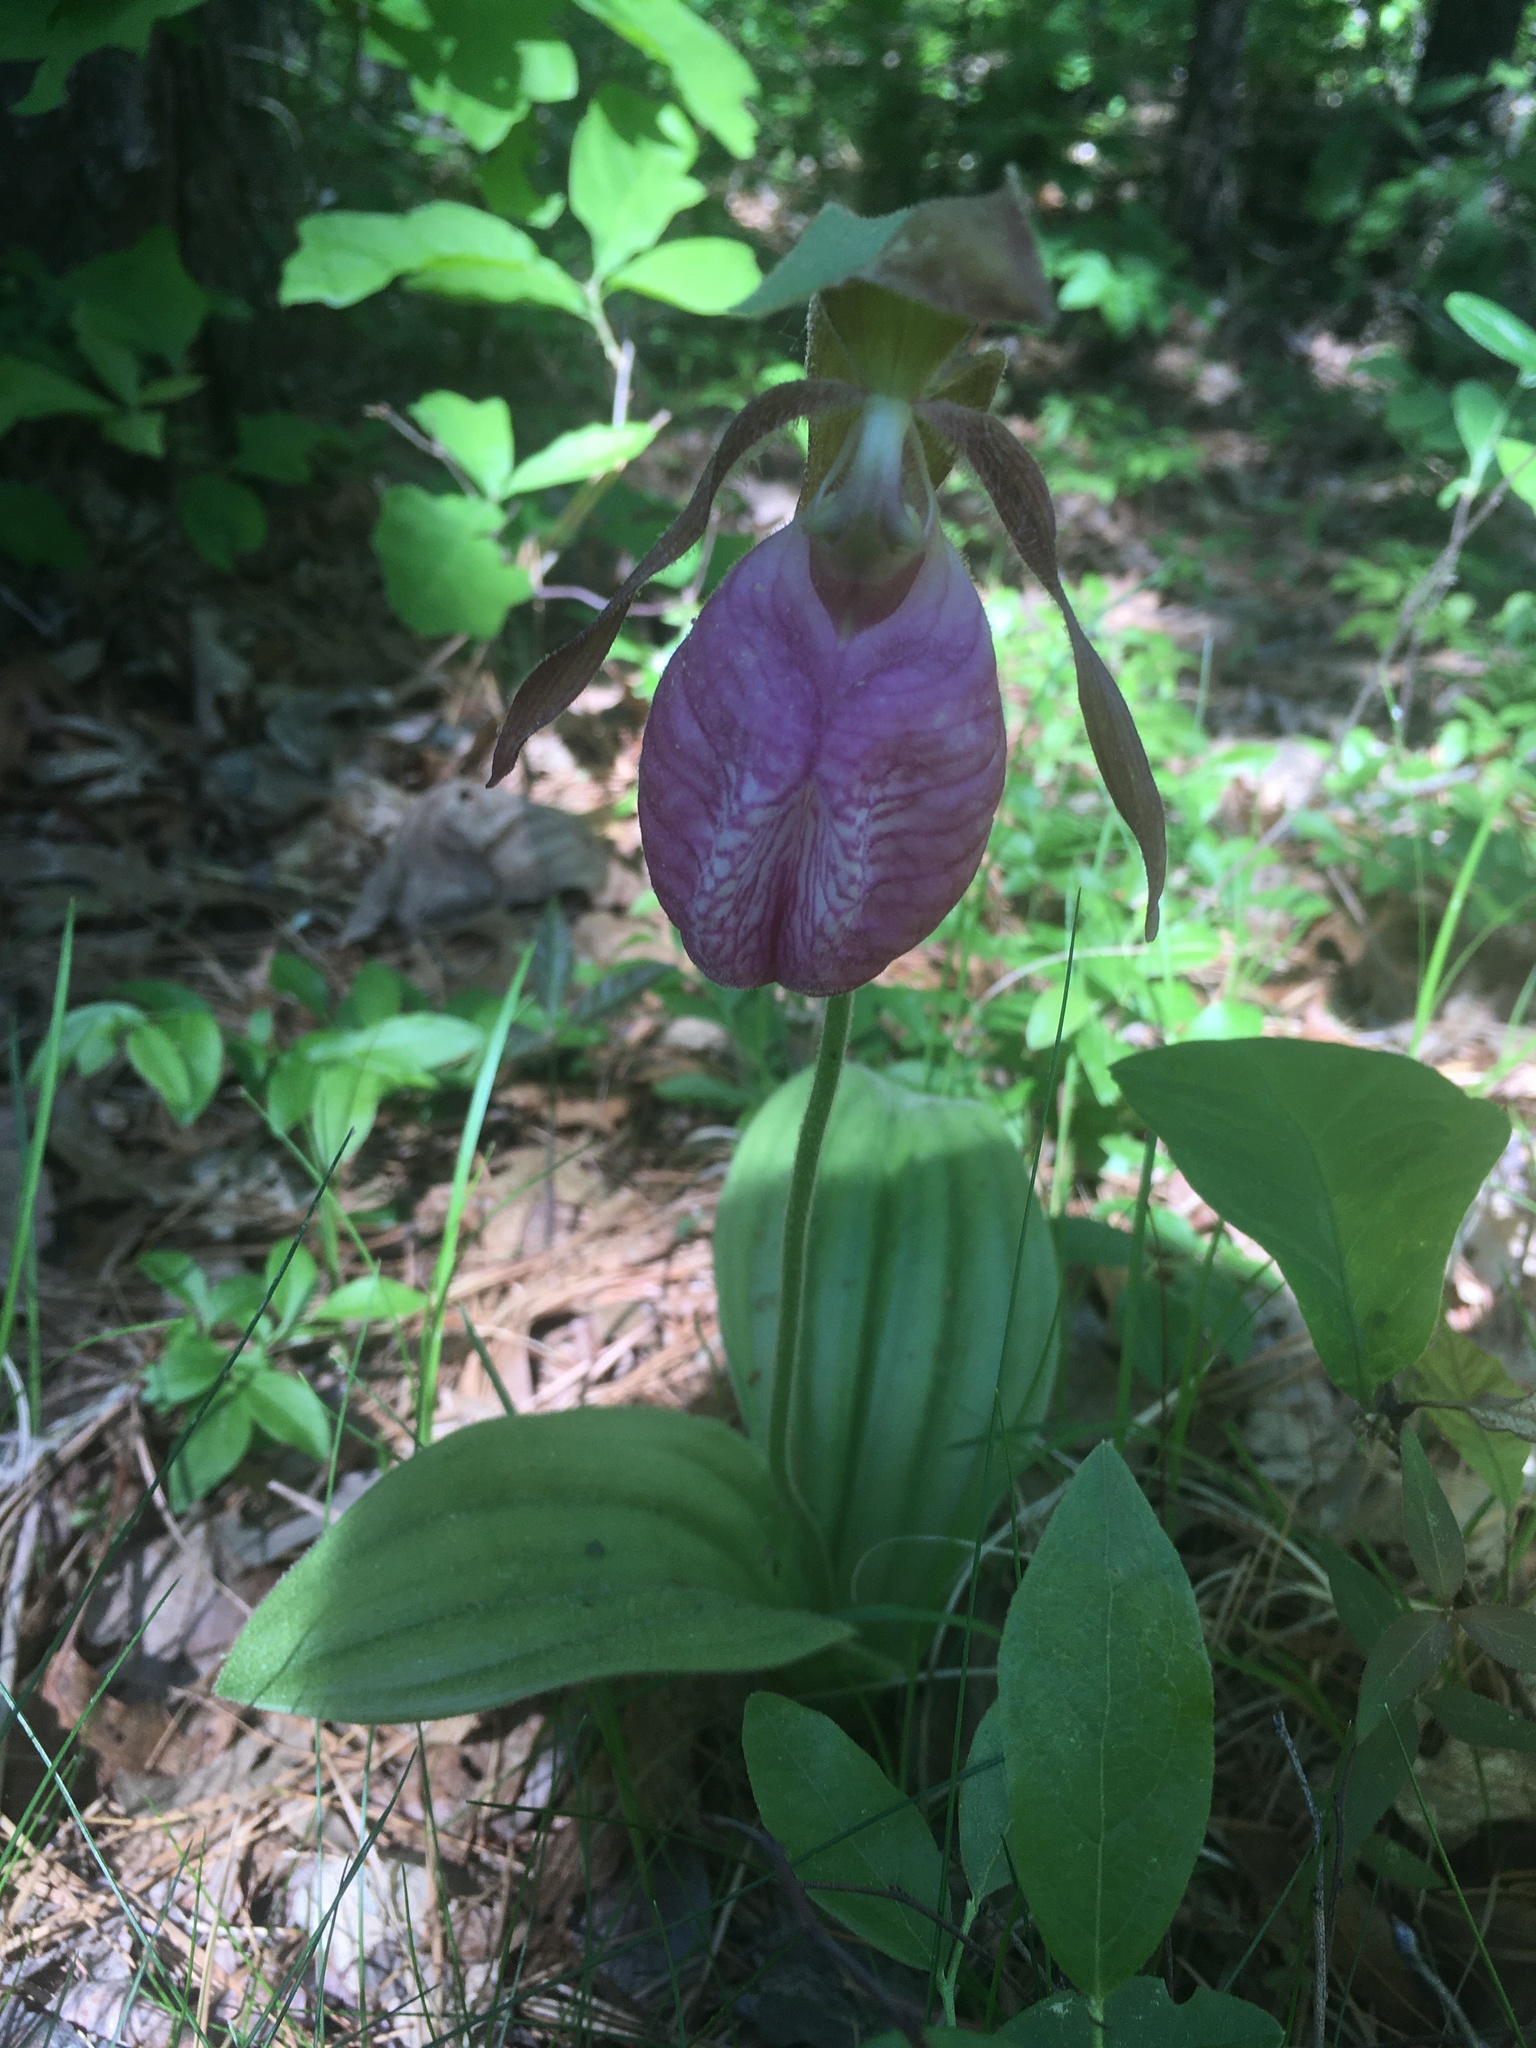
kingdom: Plantae
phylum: Tracheophyta
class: Liliopsida
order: Asparagales
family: Orchidaceae
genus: Cypripedium
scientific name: Cypripedium acaule
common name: Pink lady's-slipper
